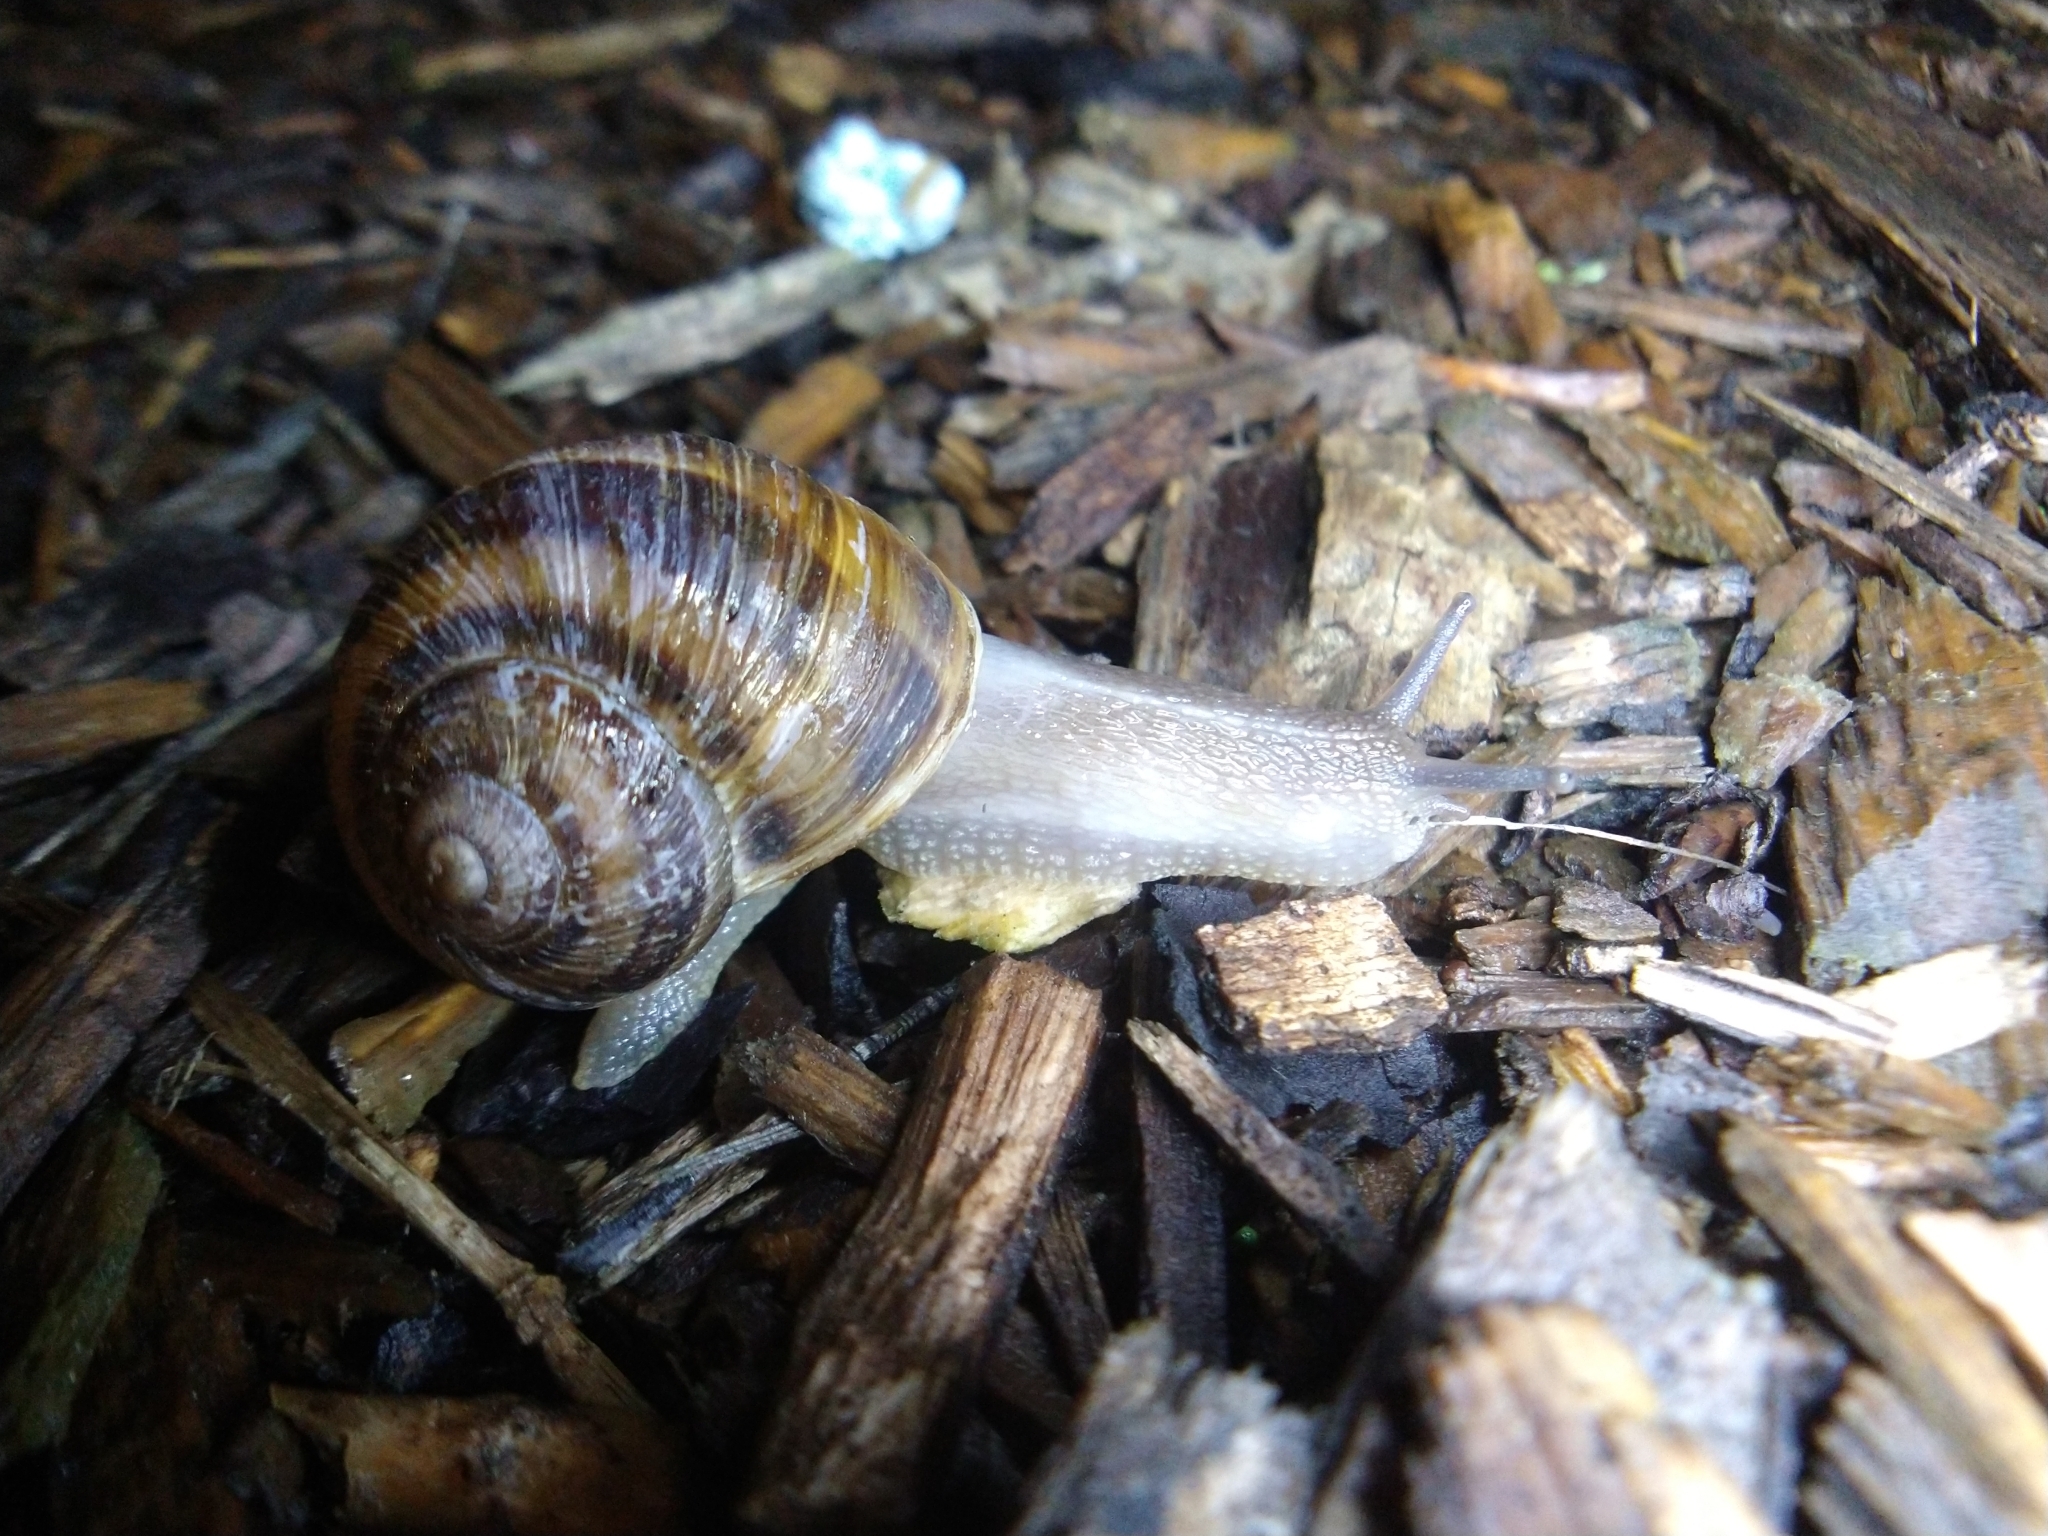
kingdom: Animalia
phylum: Mollusca
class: Gastropoda
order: Stylommatophora
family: Helicidae
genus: Cornu
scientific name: Cornu aspersum
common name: Brown garden snail
